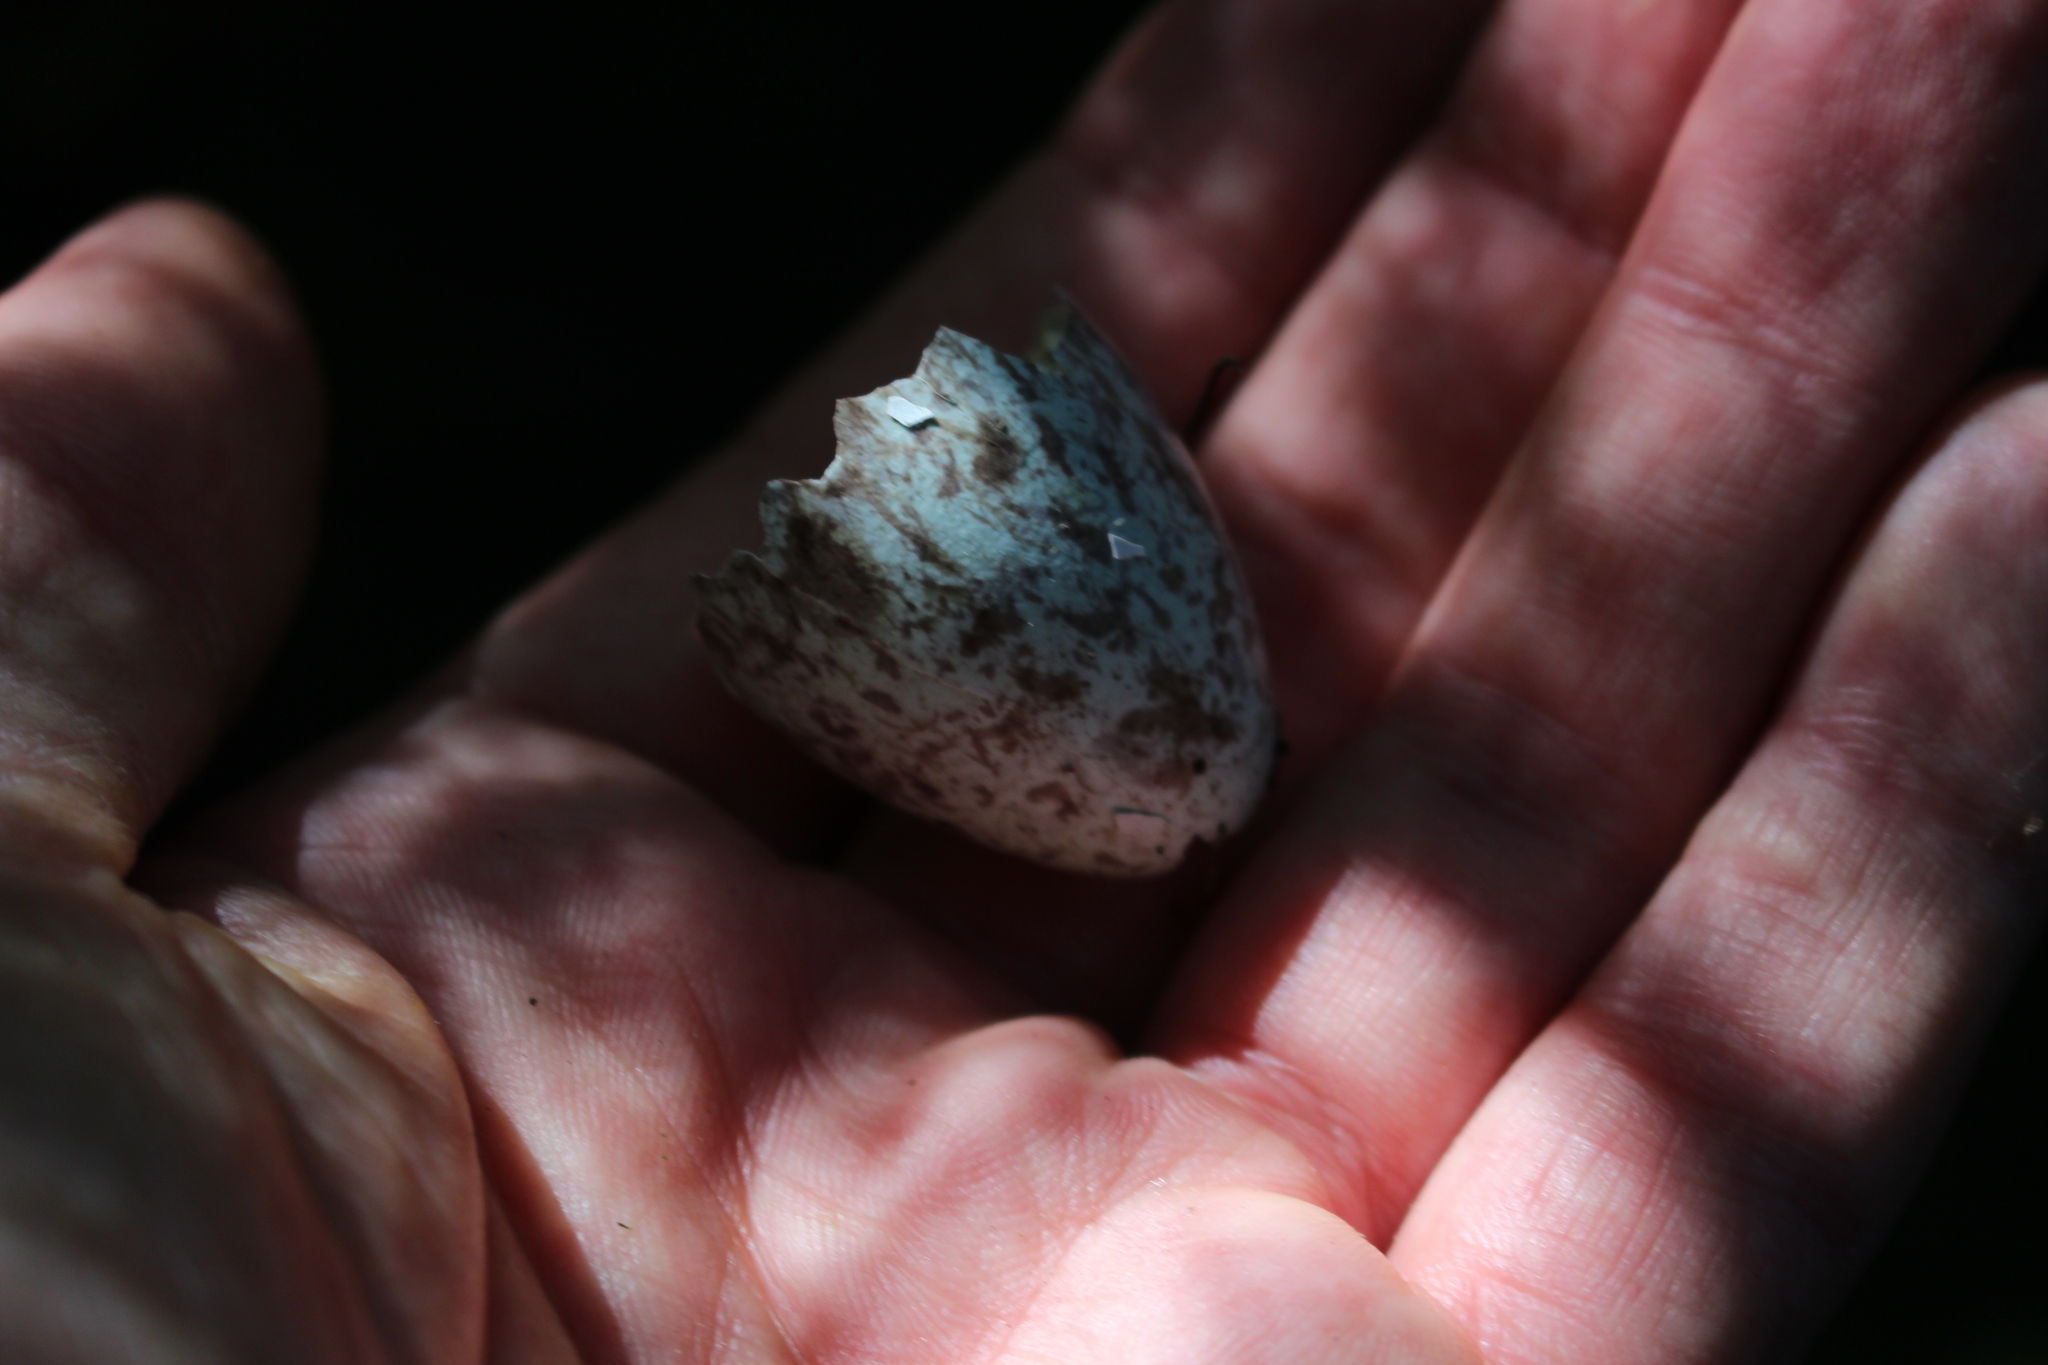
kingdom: Animalia
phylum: Chordata
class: Aves
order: Passeriformes
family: Cracticidae
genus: Gymnorhina
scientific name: Gymnorhina tibicen
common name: Australian magpie
